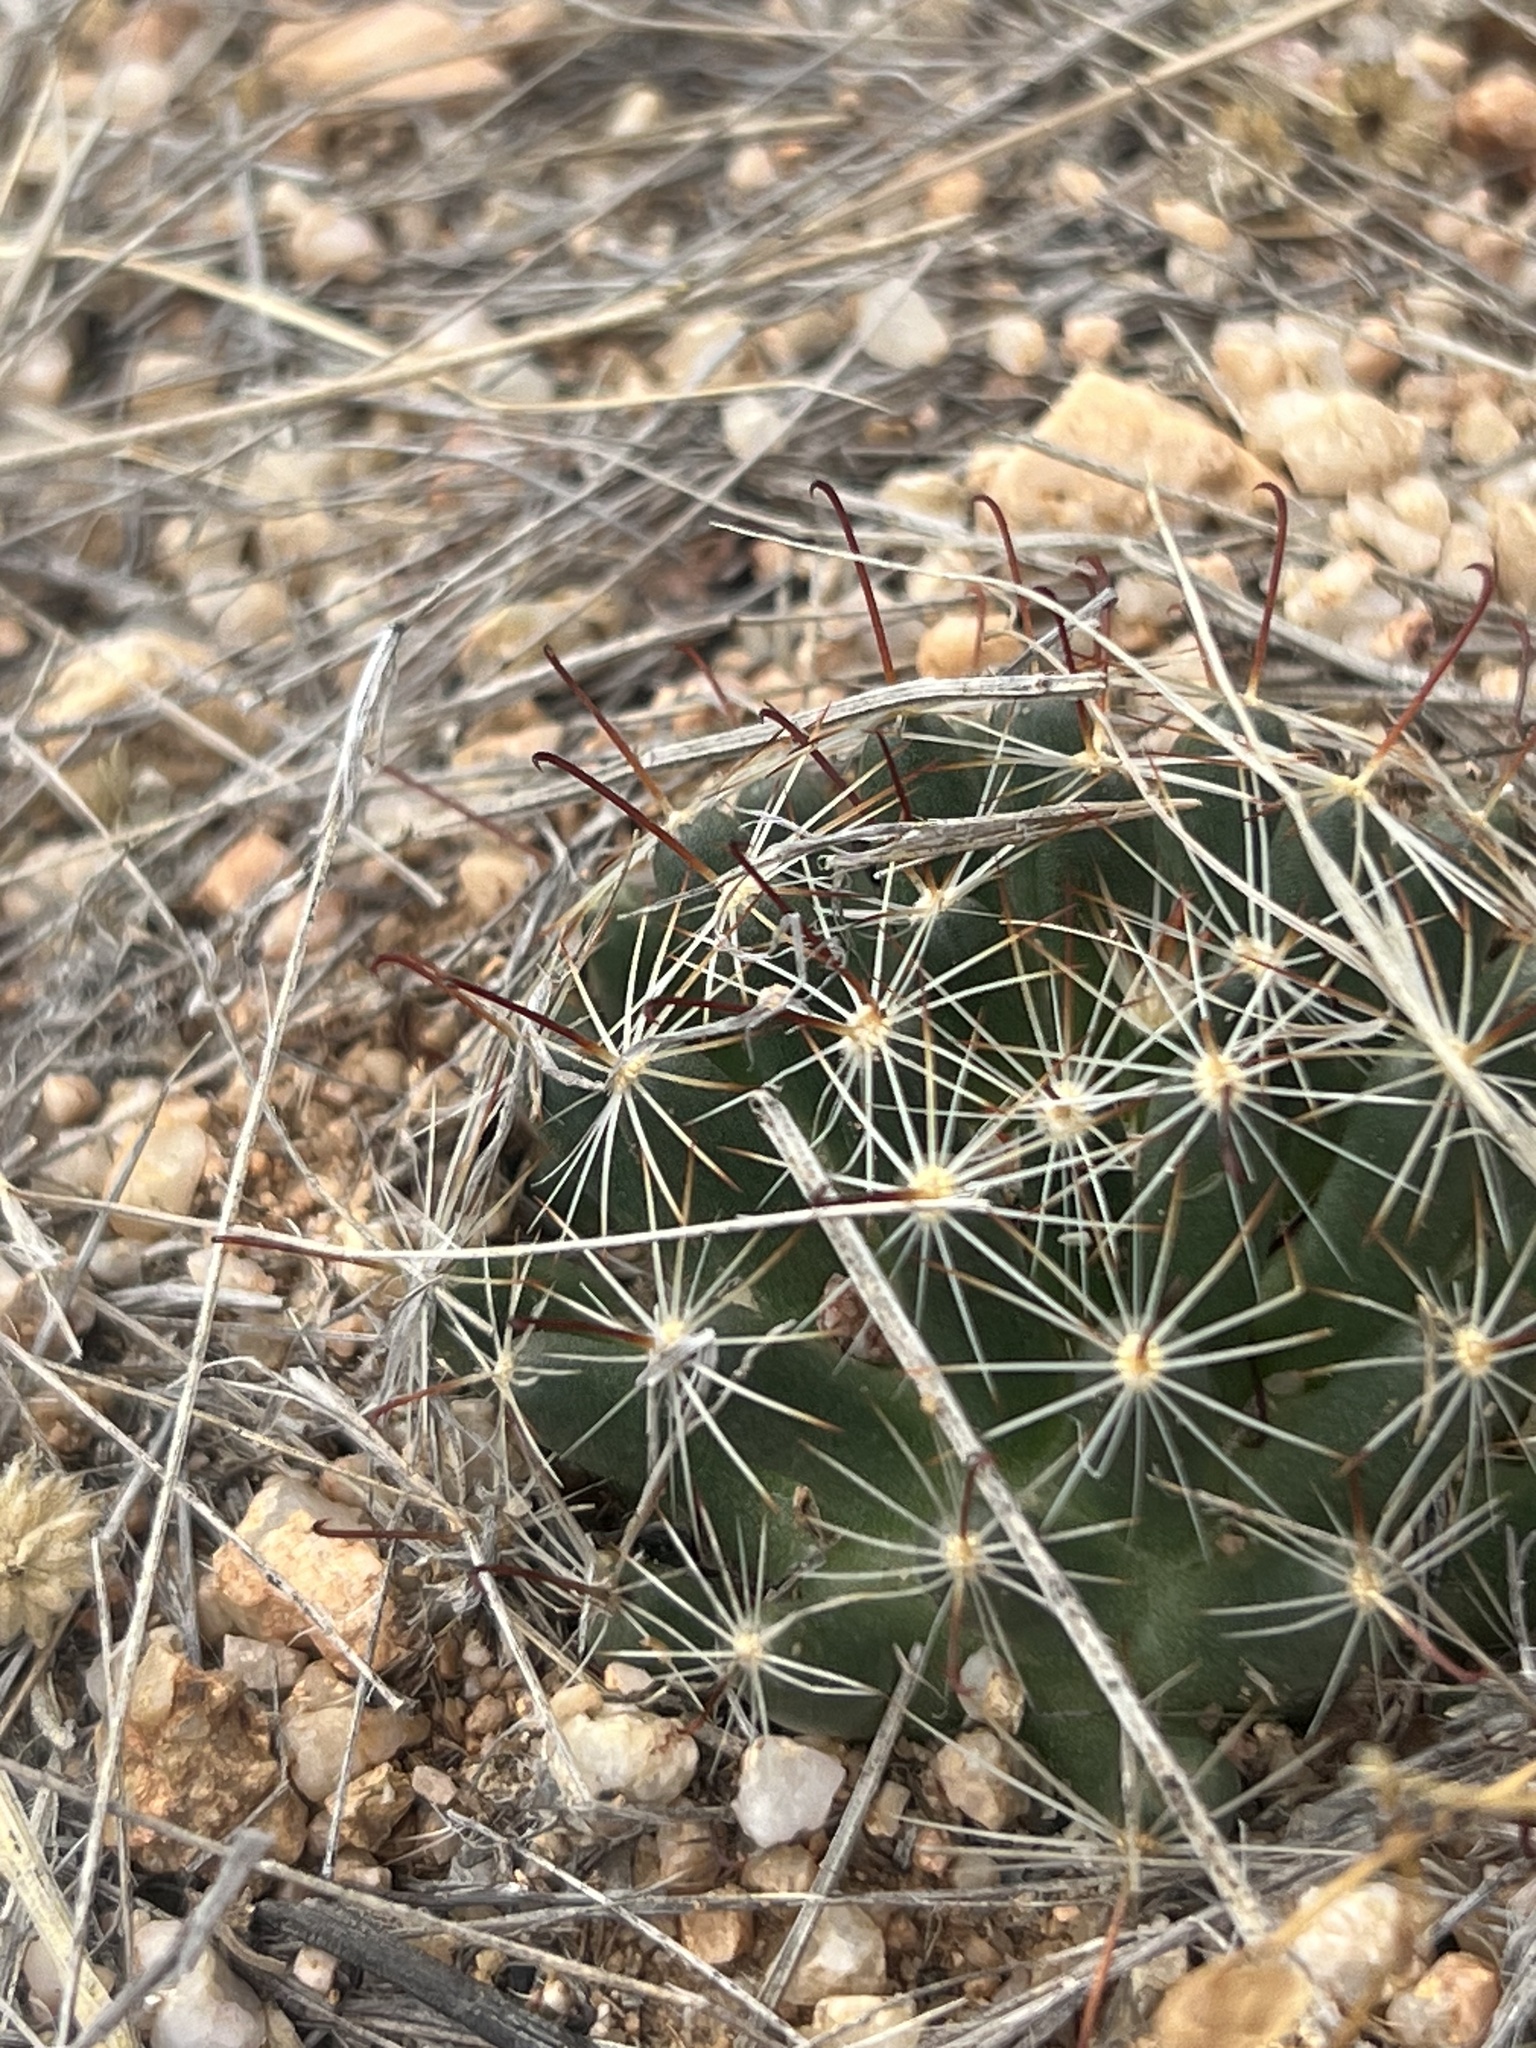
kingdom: Plantae
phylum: Tracheophyta
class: Magnoliopsida
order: Caryophyllales
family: Cactaceae
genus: Cochemiea
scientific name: Cochemiea wrightii
